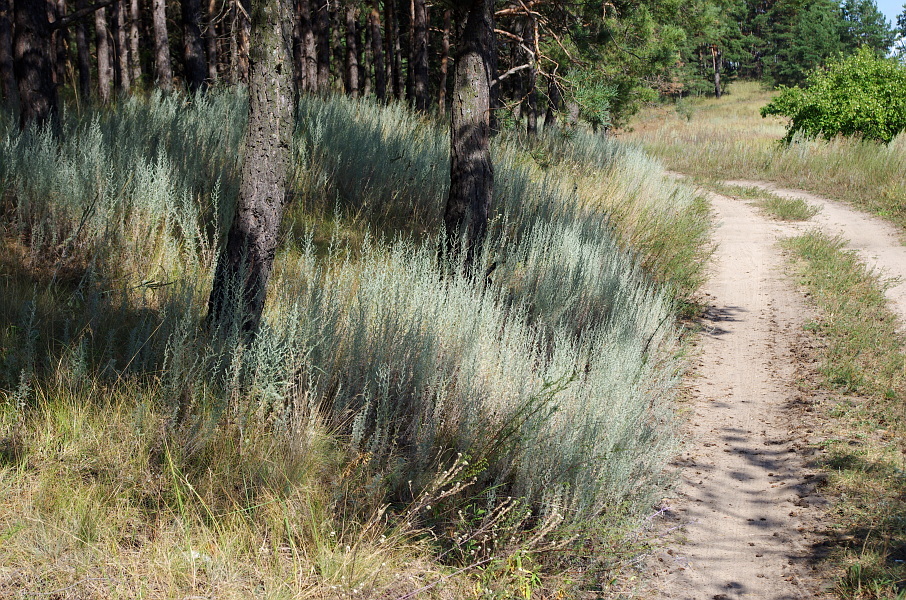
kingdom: Plantae
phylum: Tracheophyta
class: Magnoliopsida
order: Asterales
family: Asteraceae
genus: Artemisia
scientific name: Artemisia austriaca
